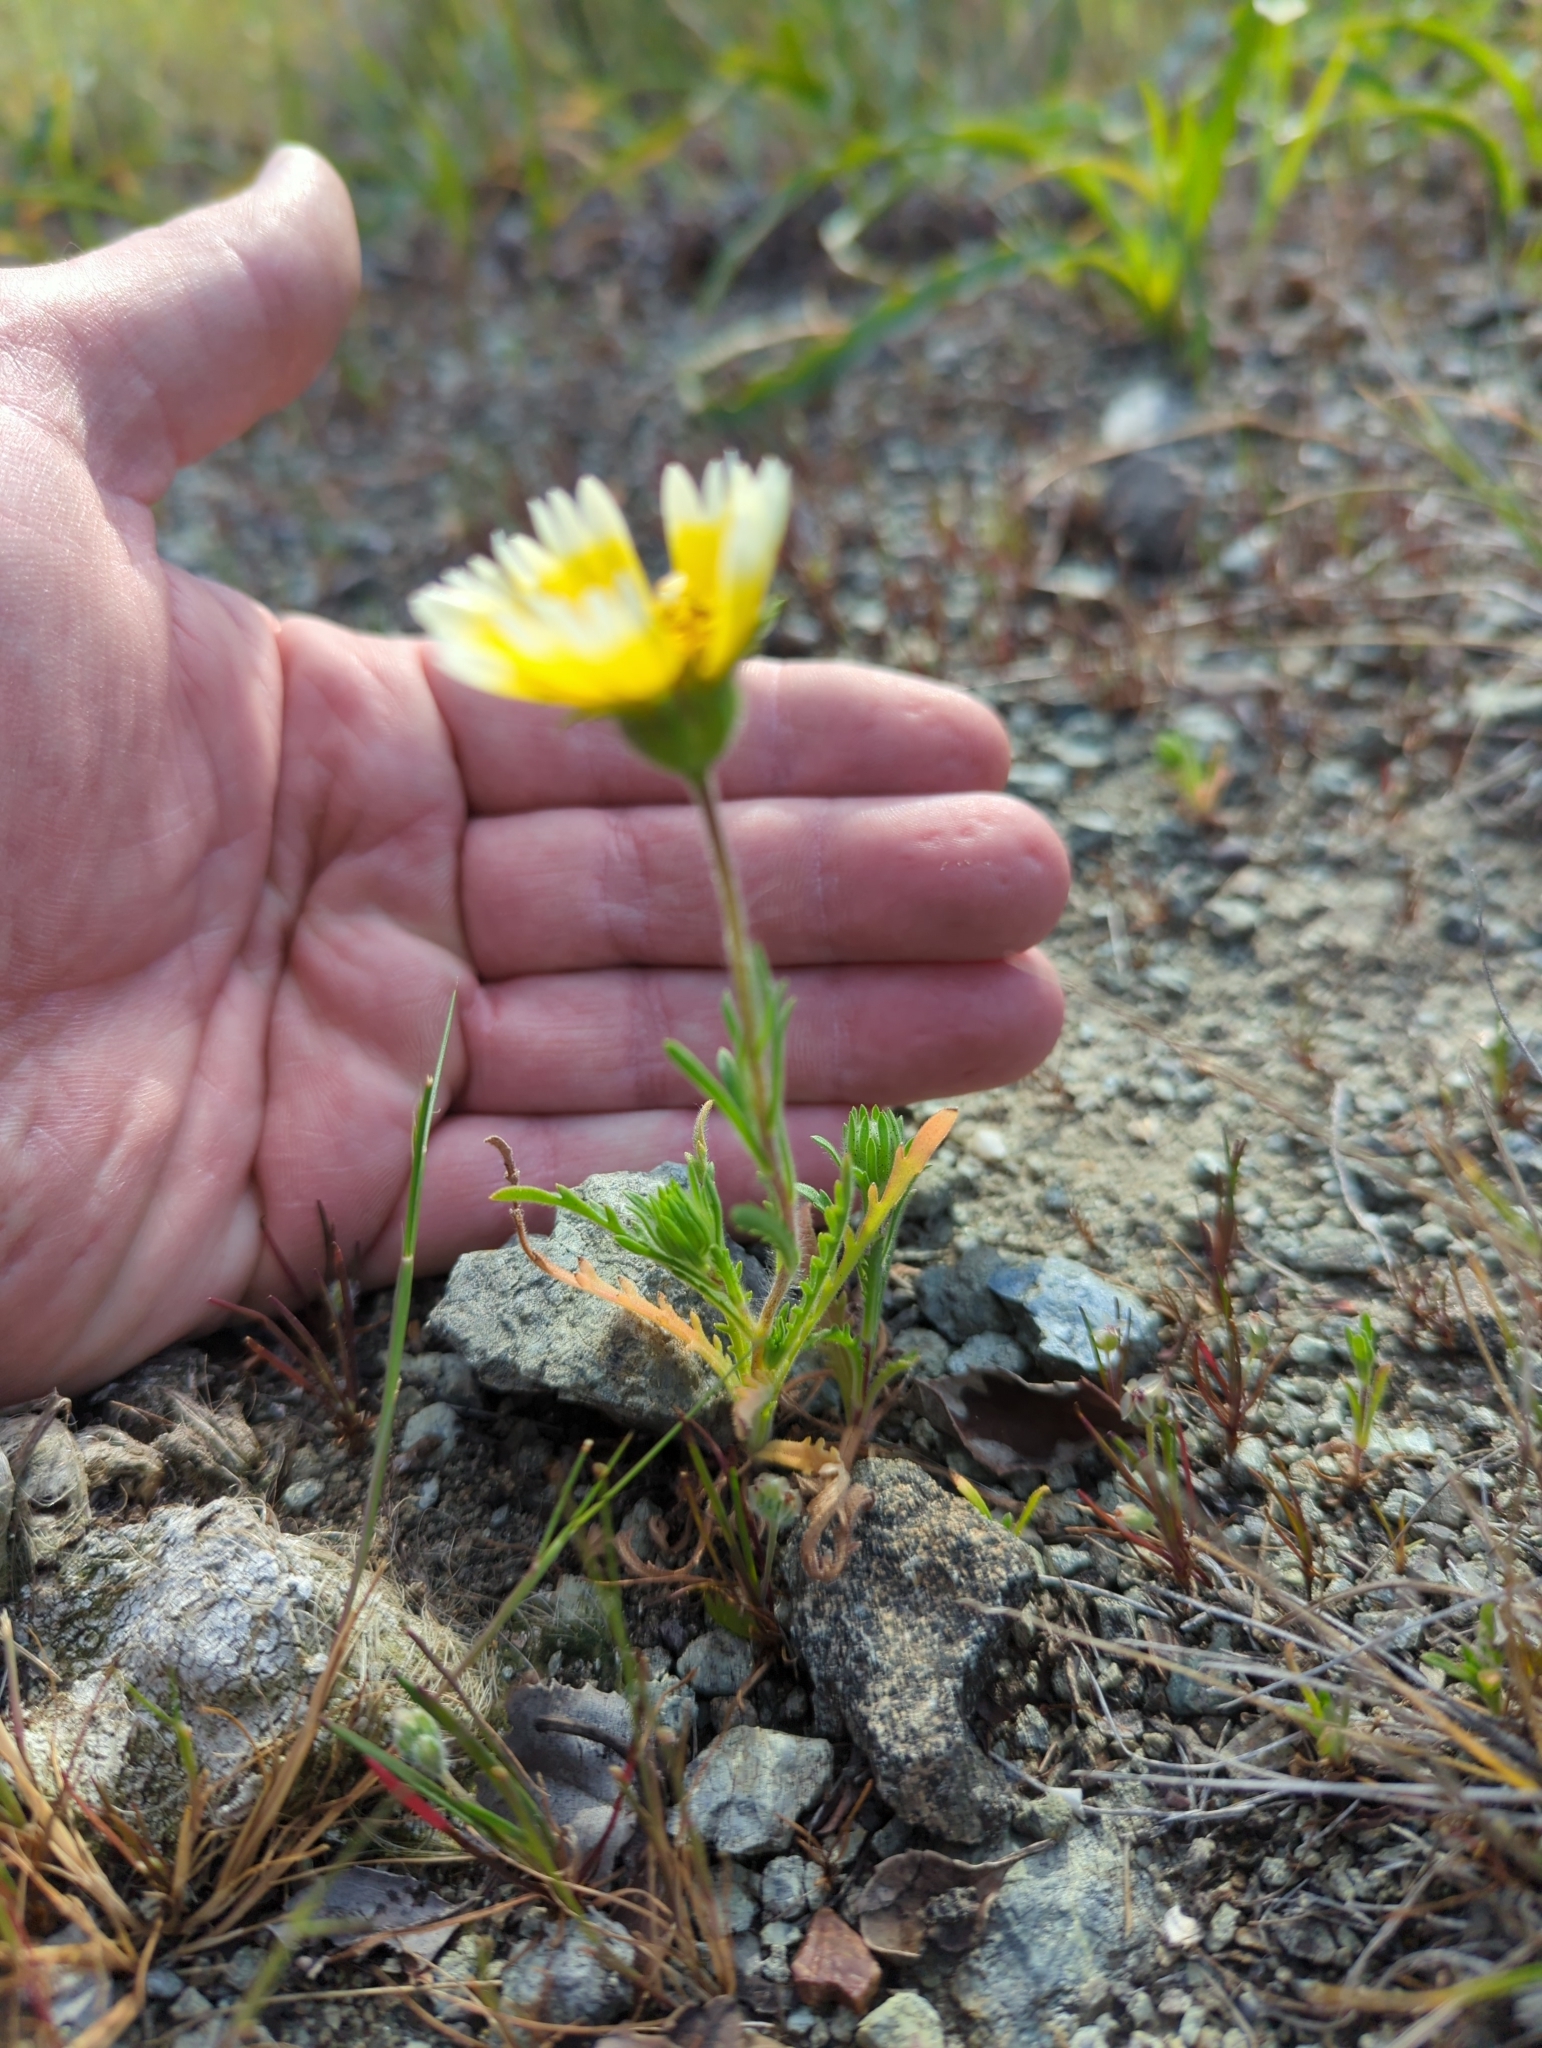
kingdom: Plantae
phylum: Tracheophyta
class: Magnoliopsida
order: Asterales
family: Asteraceae
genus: Layia
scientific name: Layia platyglossa
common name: Tidy-tips
